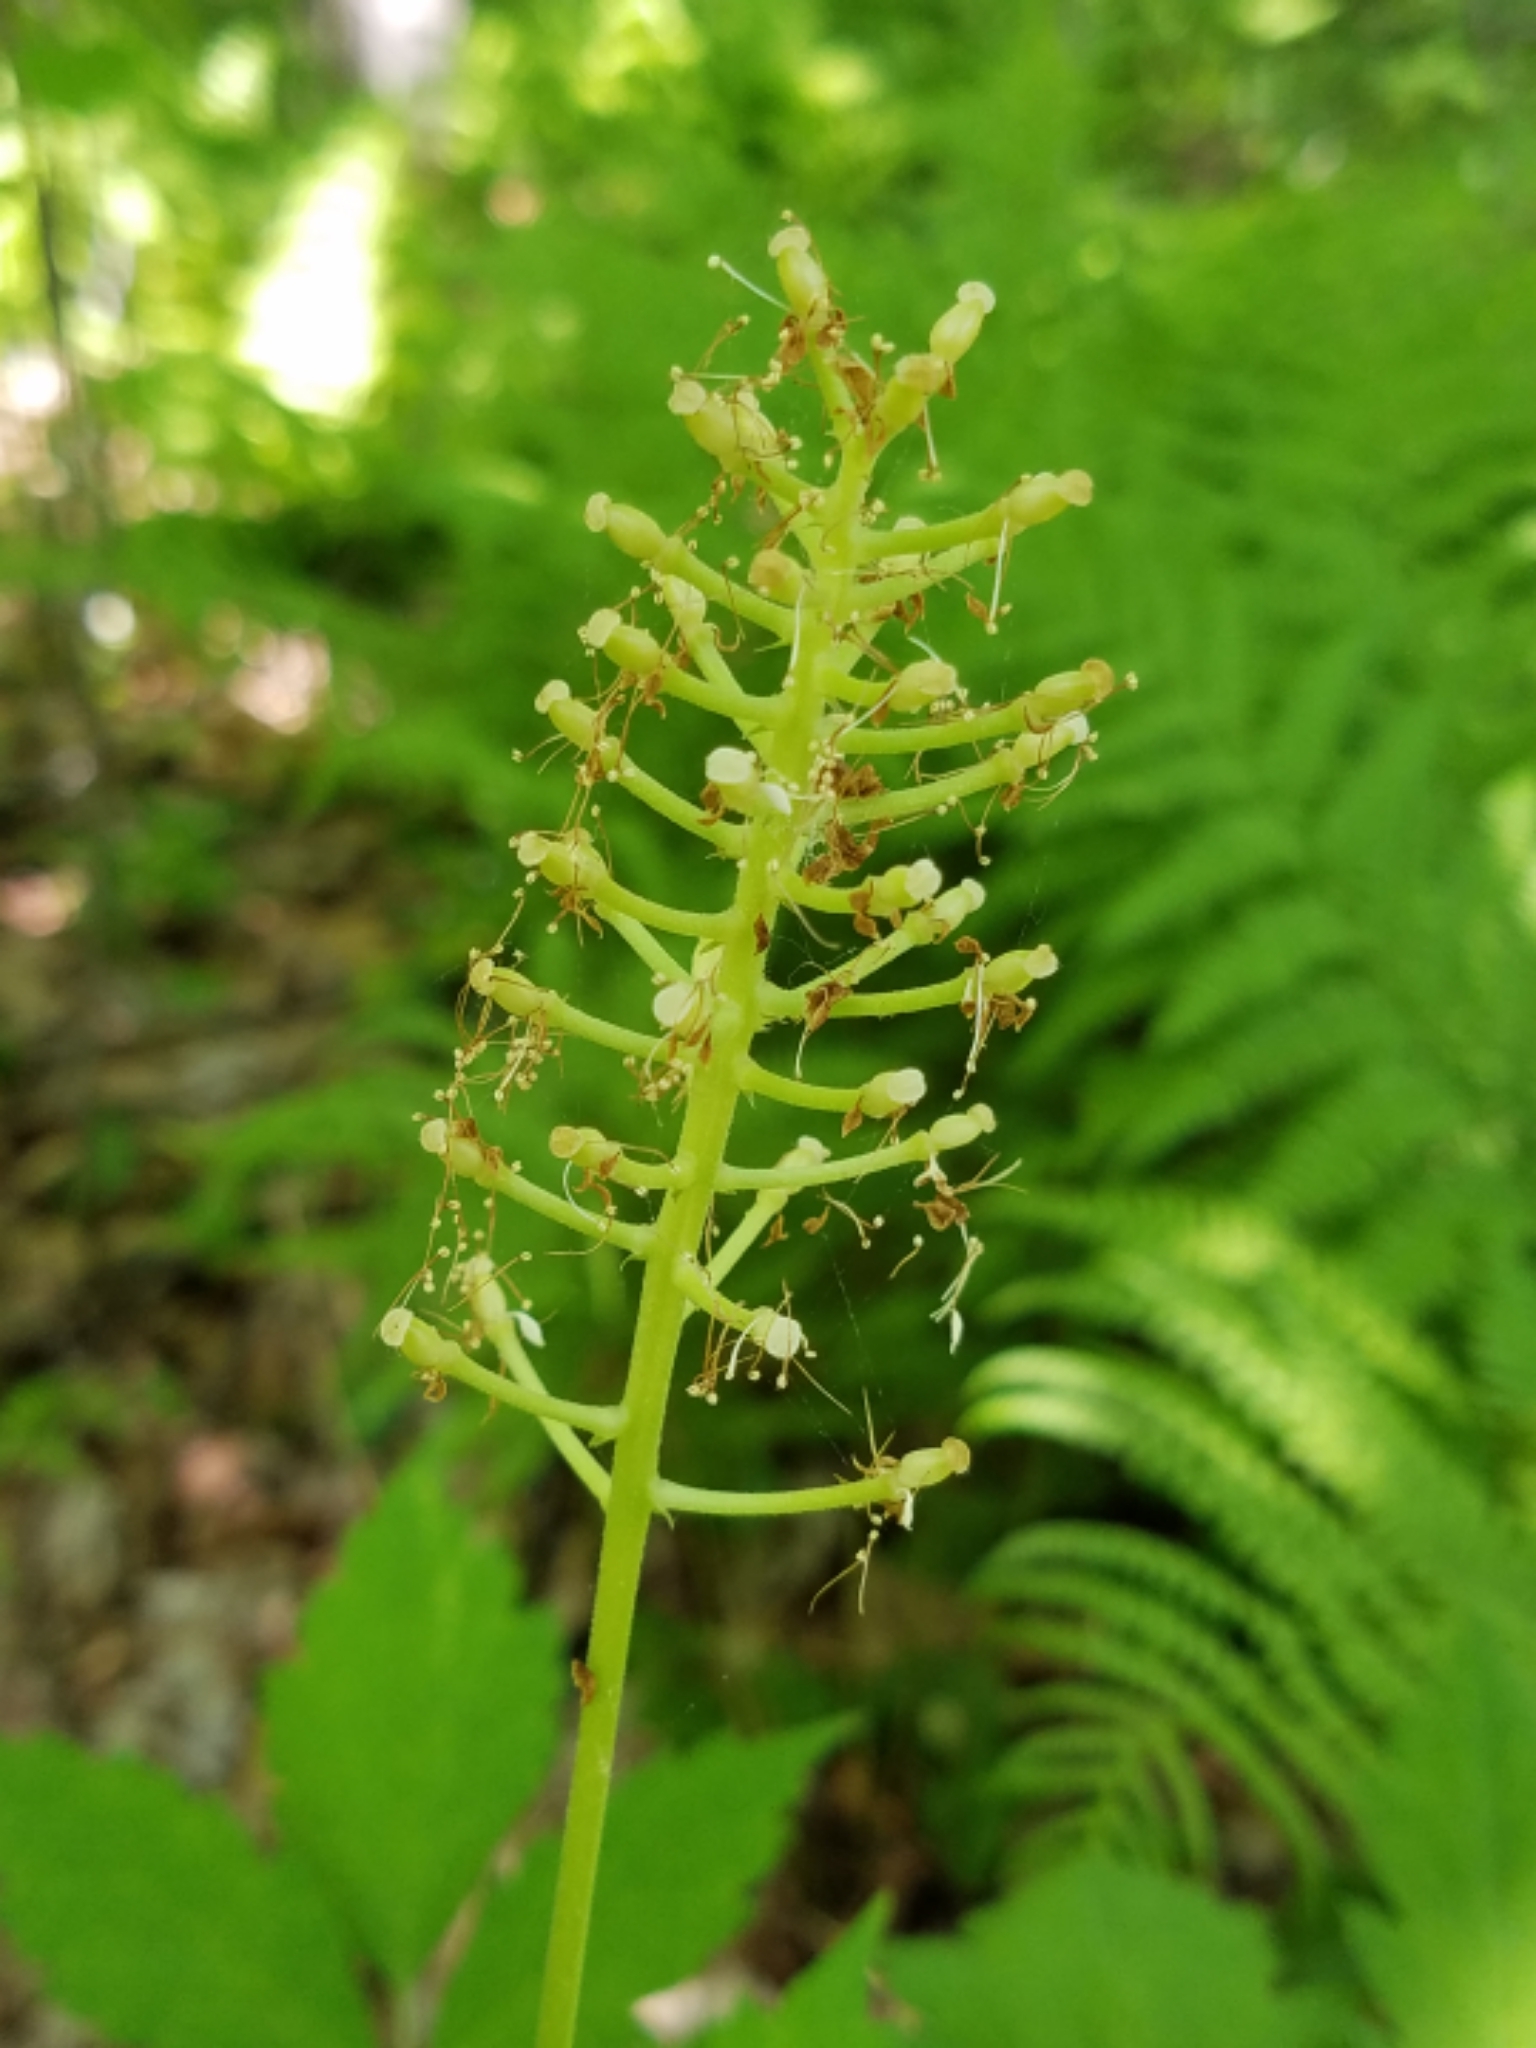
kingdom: Plantae
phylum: Tracheophyta
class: Magnoliopsida
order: Ranunculales
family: Ranunculaceae
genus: Actaea
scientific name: Actaea pachypoda
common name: Doll's-eyes
